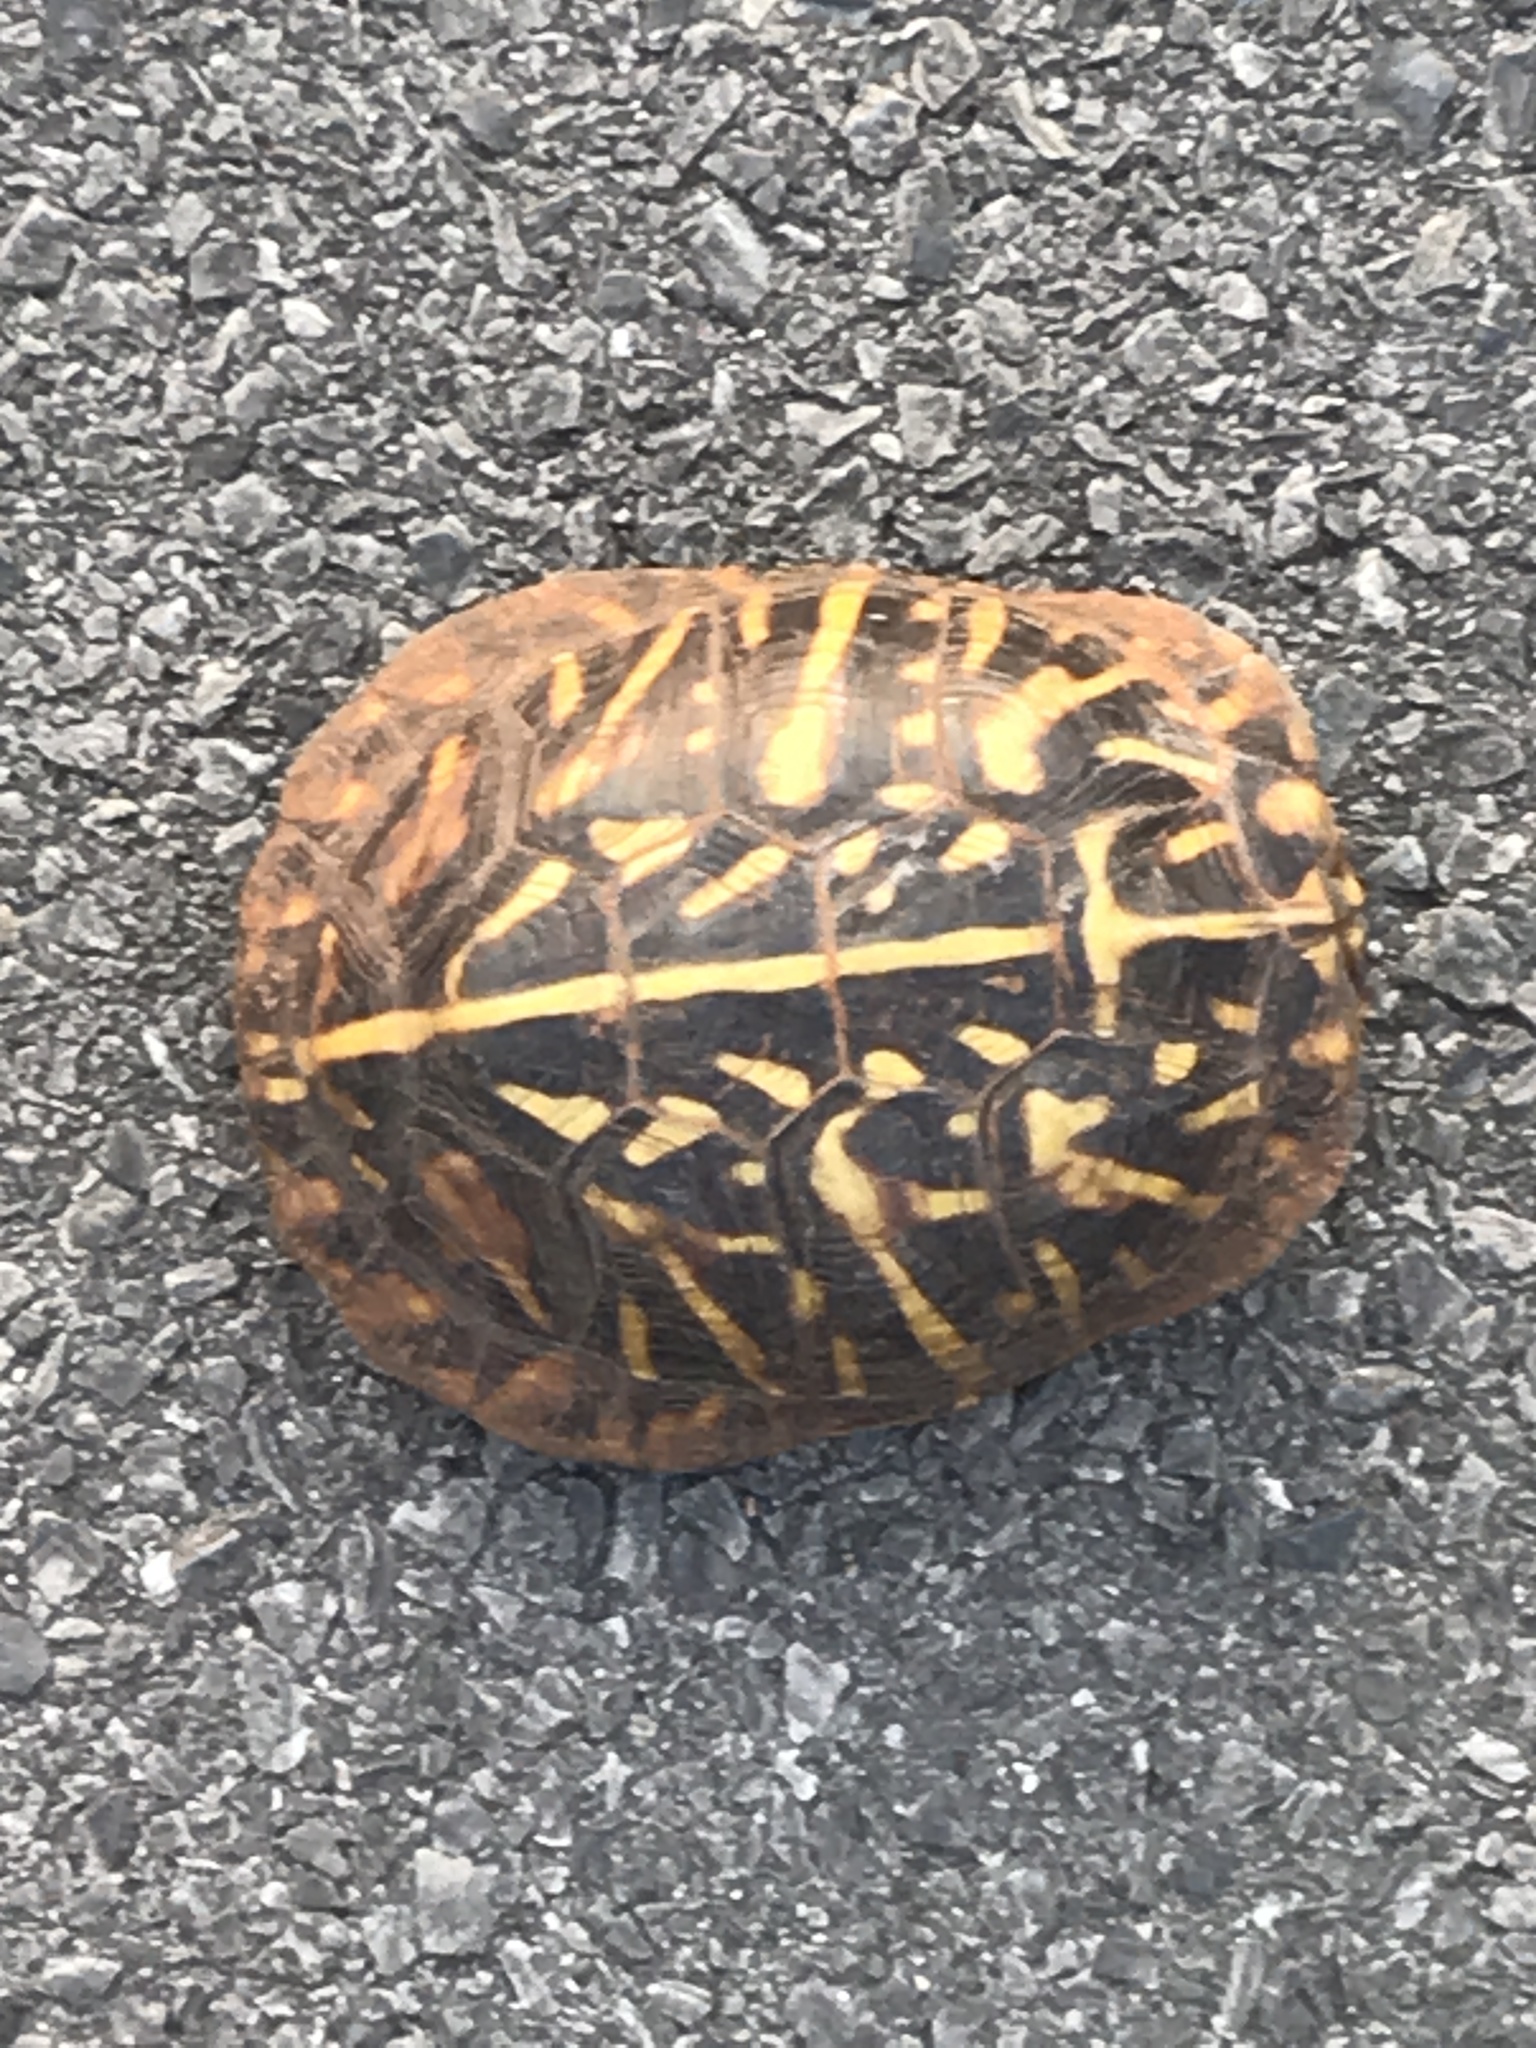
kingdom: Animalia
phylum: Chordata
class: Testudines
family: Emydidae
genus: Terrapene
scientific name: Terrapene ornata
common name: Western box turtle
